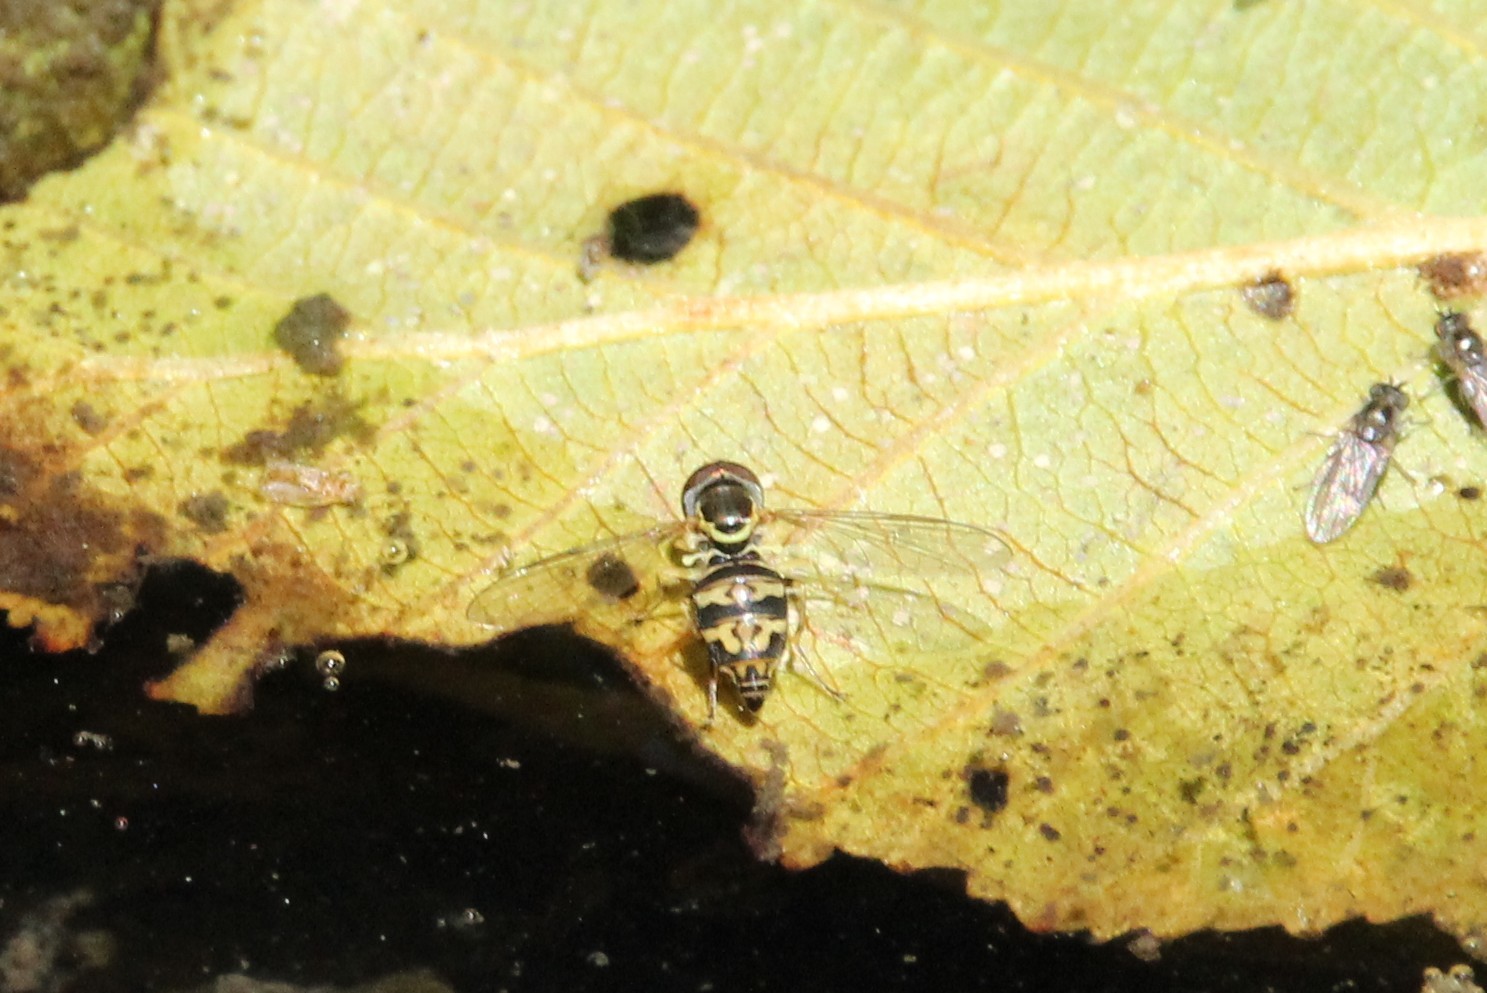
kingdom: Animalia
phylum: Arthropoda
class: Insecta
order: Diptera
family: Syrphidae
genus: Toxomerus
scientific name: Toxomerus occidentalis
